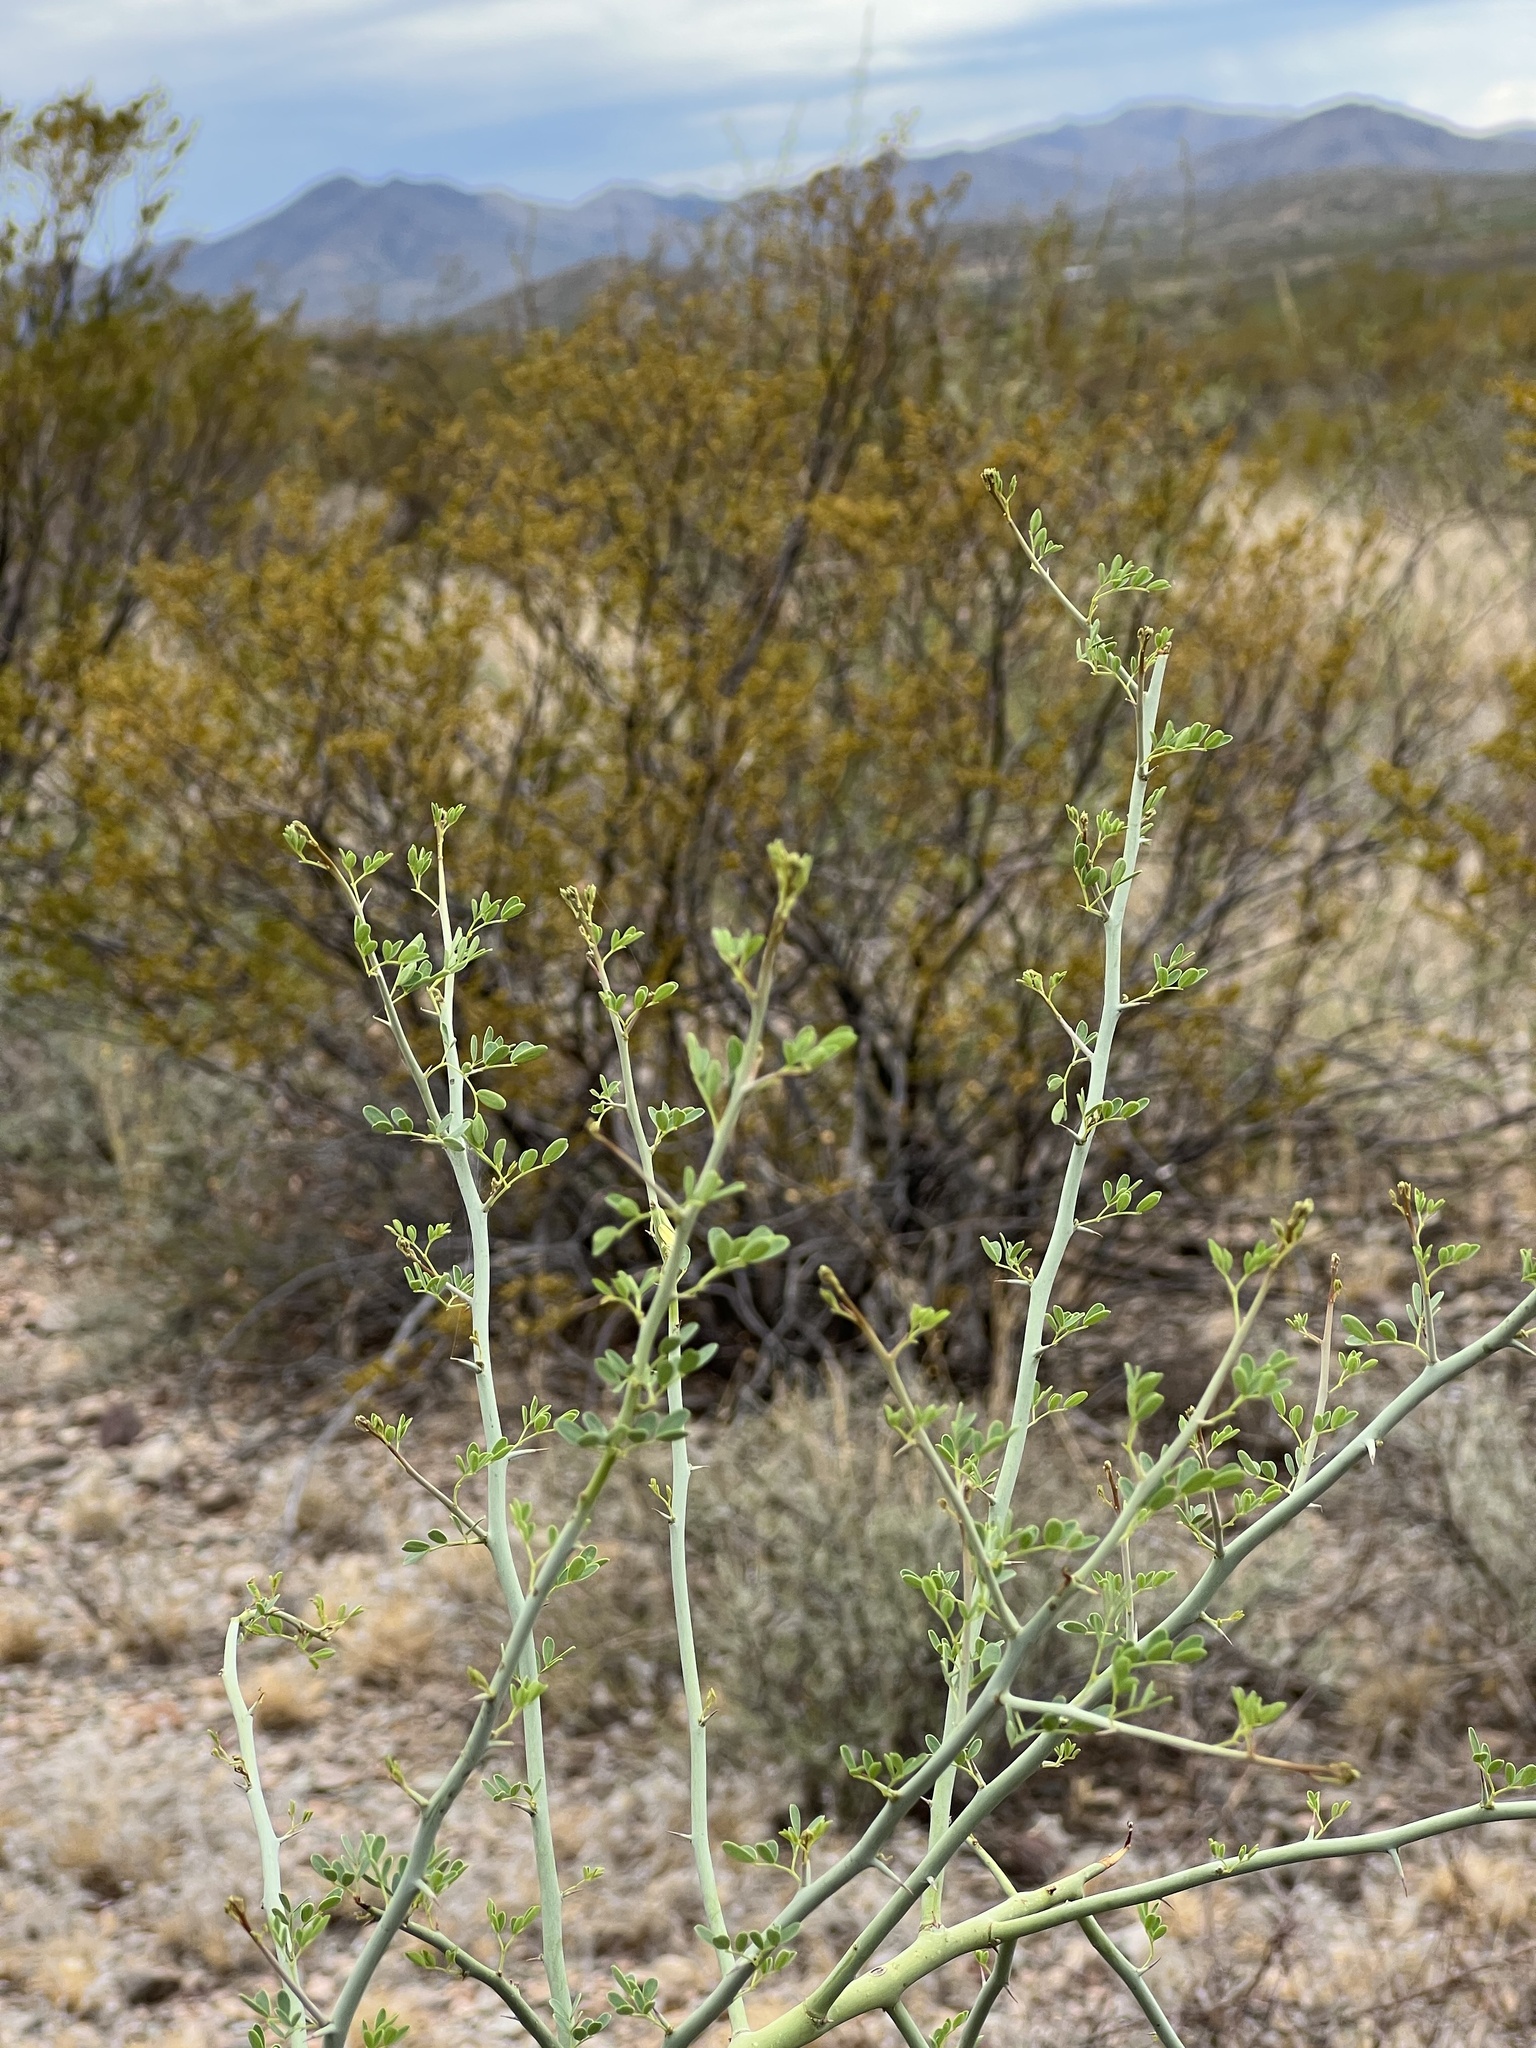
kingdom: Plantae
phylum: Tracheophyta
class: Magnoliopsida
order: Fabales
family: Fabaceae
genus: Parkinsonia
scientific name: Parkinsonia florida
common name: Blue paloverde
